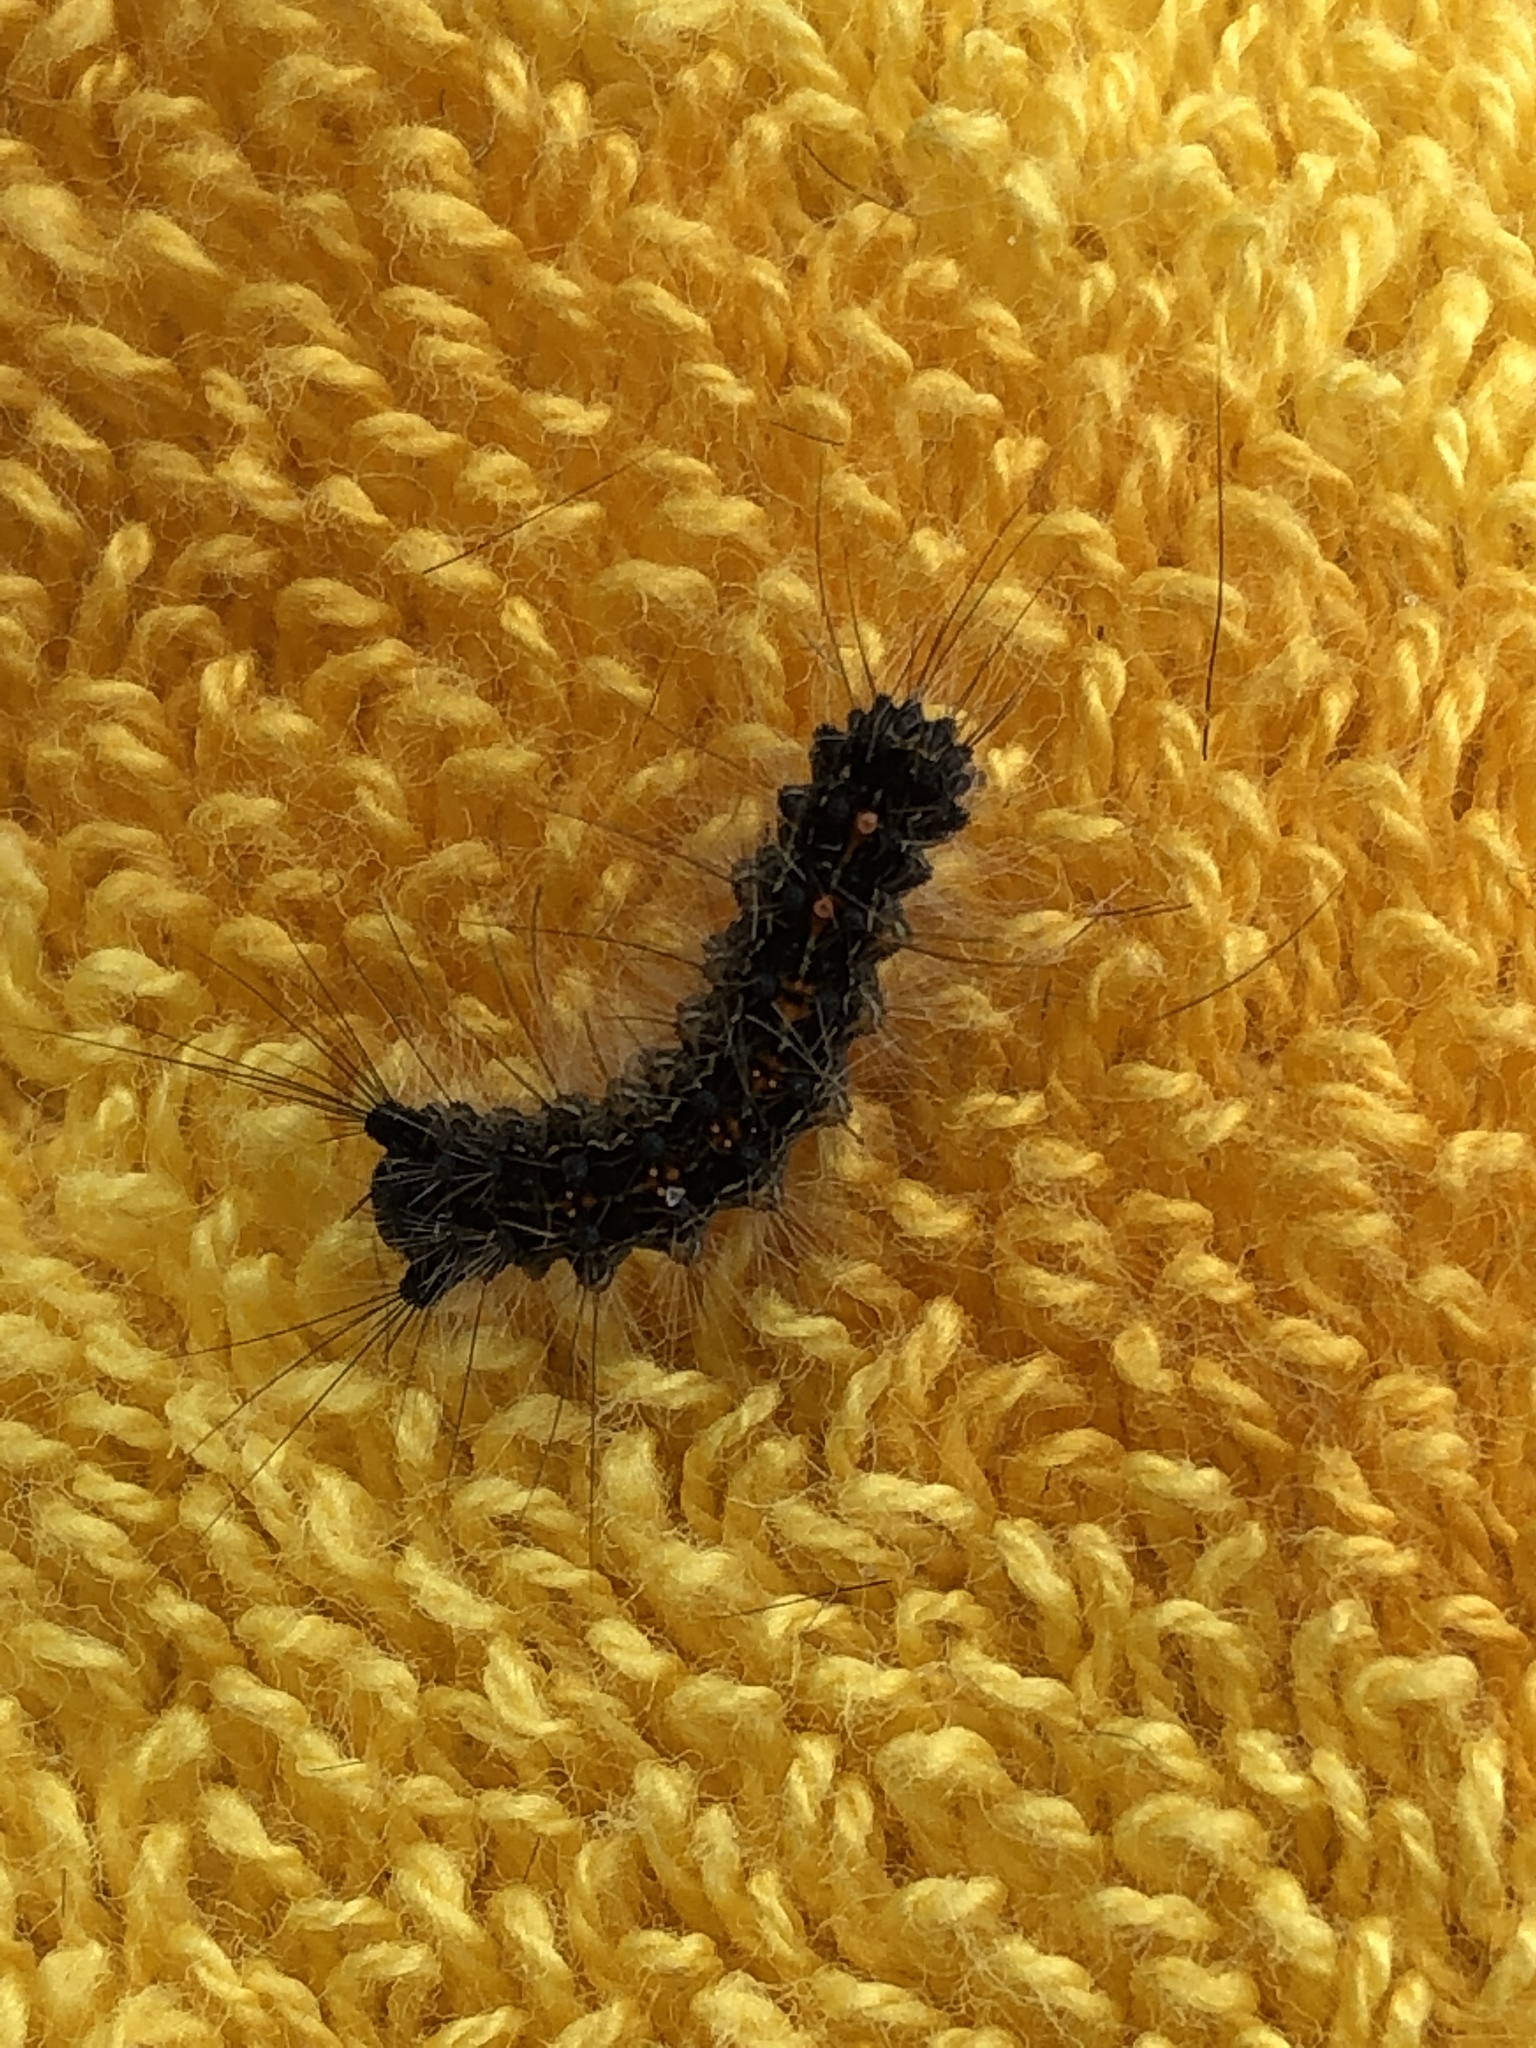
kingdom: Animalia
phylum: Arthropoda
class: Insecta
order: Lepidoptera
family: Erebidae
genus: Lymantria
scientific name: Lymantria dispar
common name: Gypsy moth
